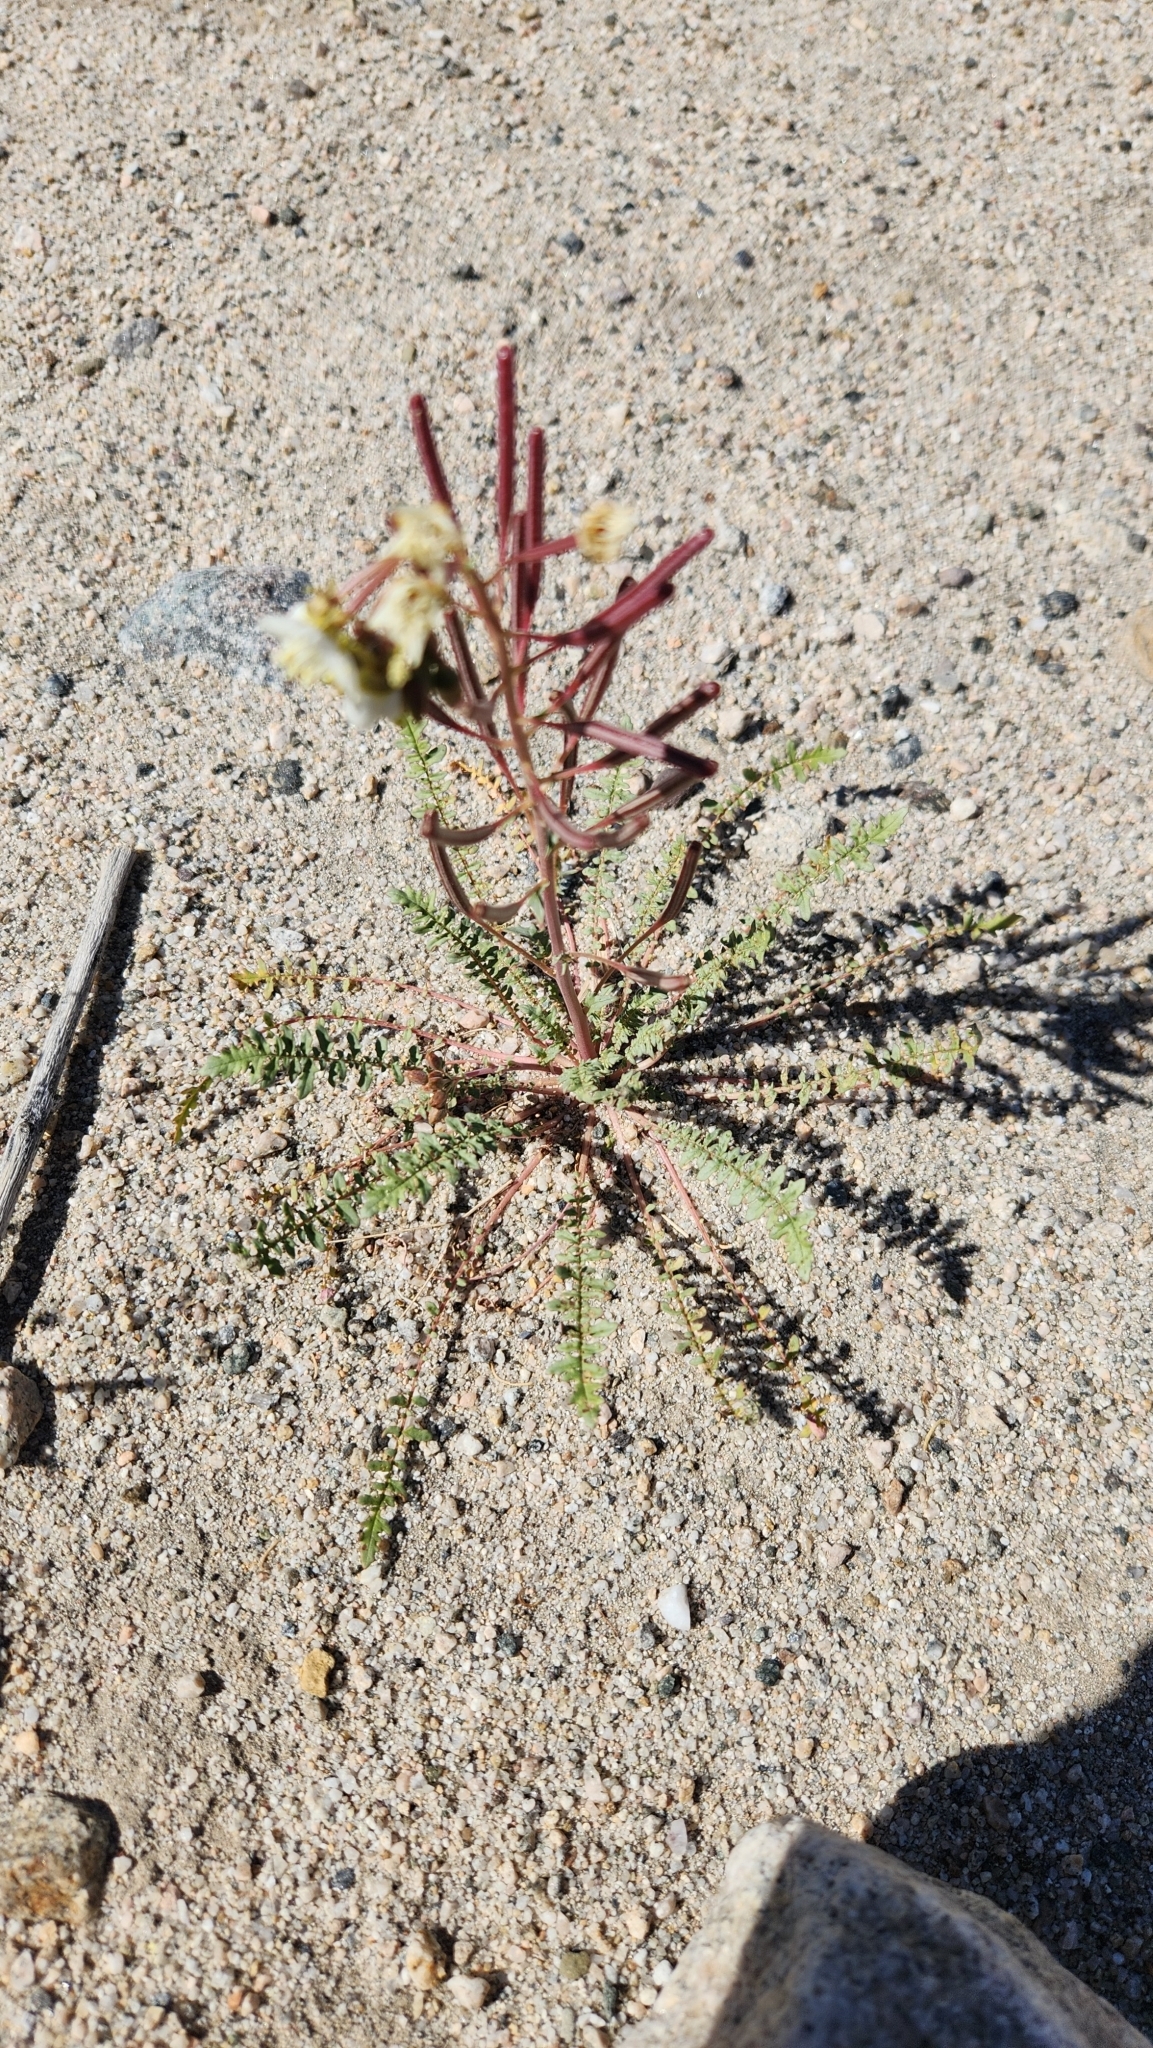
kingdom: Plantae
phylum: Tracheophyta
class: Magnoliopsida
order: Myrtales
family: Onagraceae
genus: Chylismia
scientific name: Chylismia claviformis
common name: Browneyes
